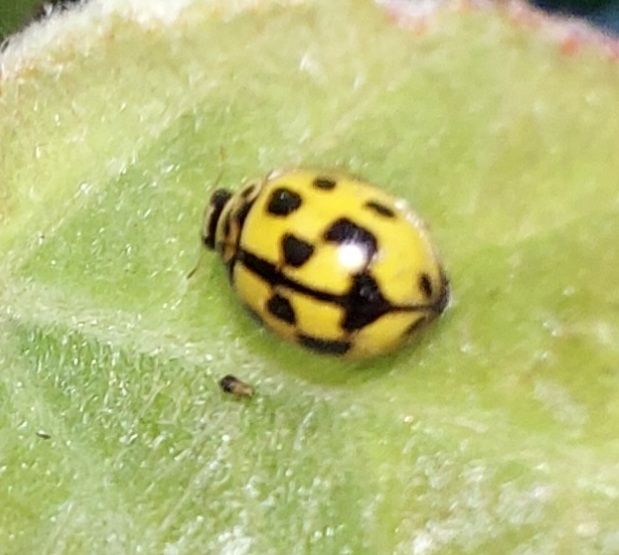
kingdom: Animalia
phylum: Arthropoda
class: Insecta
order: Coleoptera
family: Coccinellidae
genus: Propylaea
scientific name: Propylaea quatuordecimpunctata
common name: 14-spotted ladybird beetle
